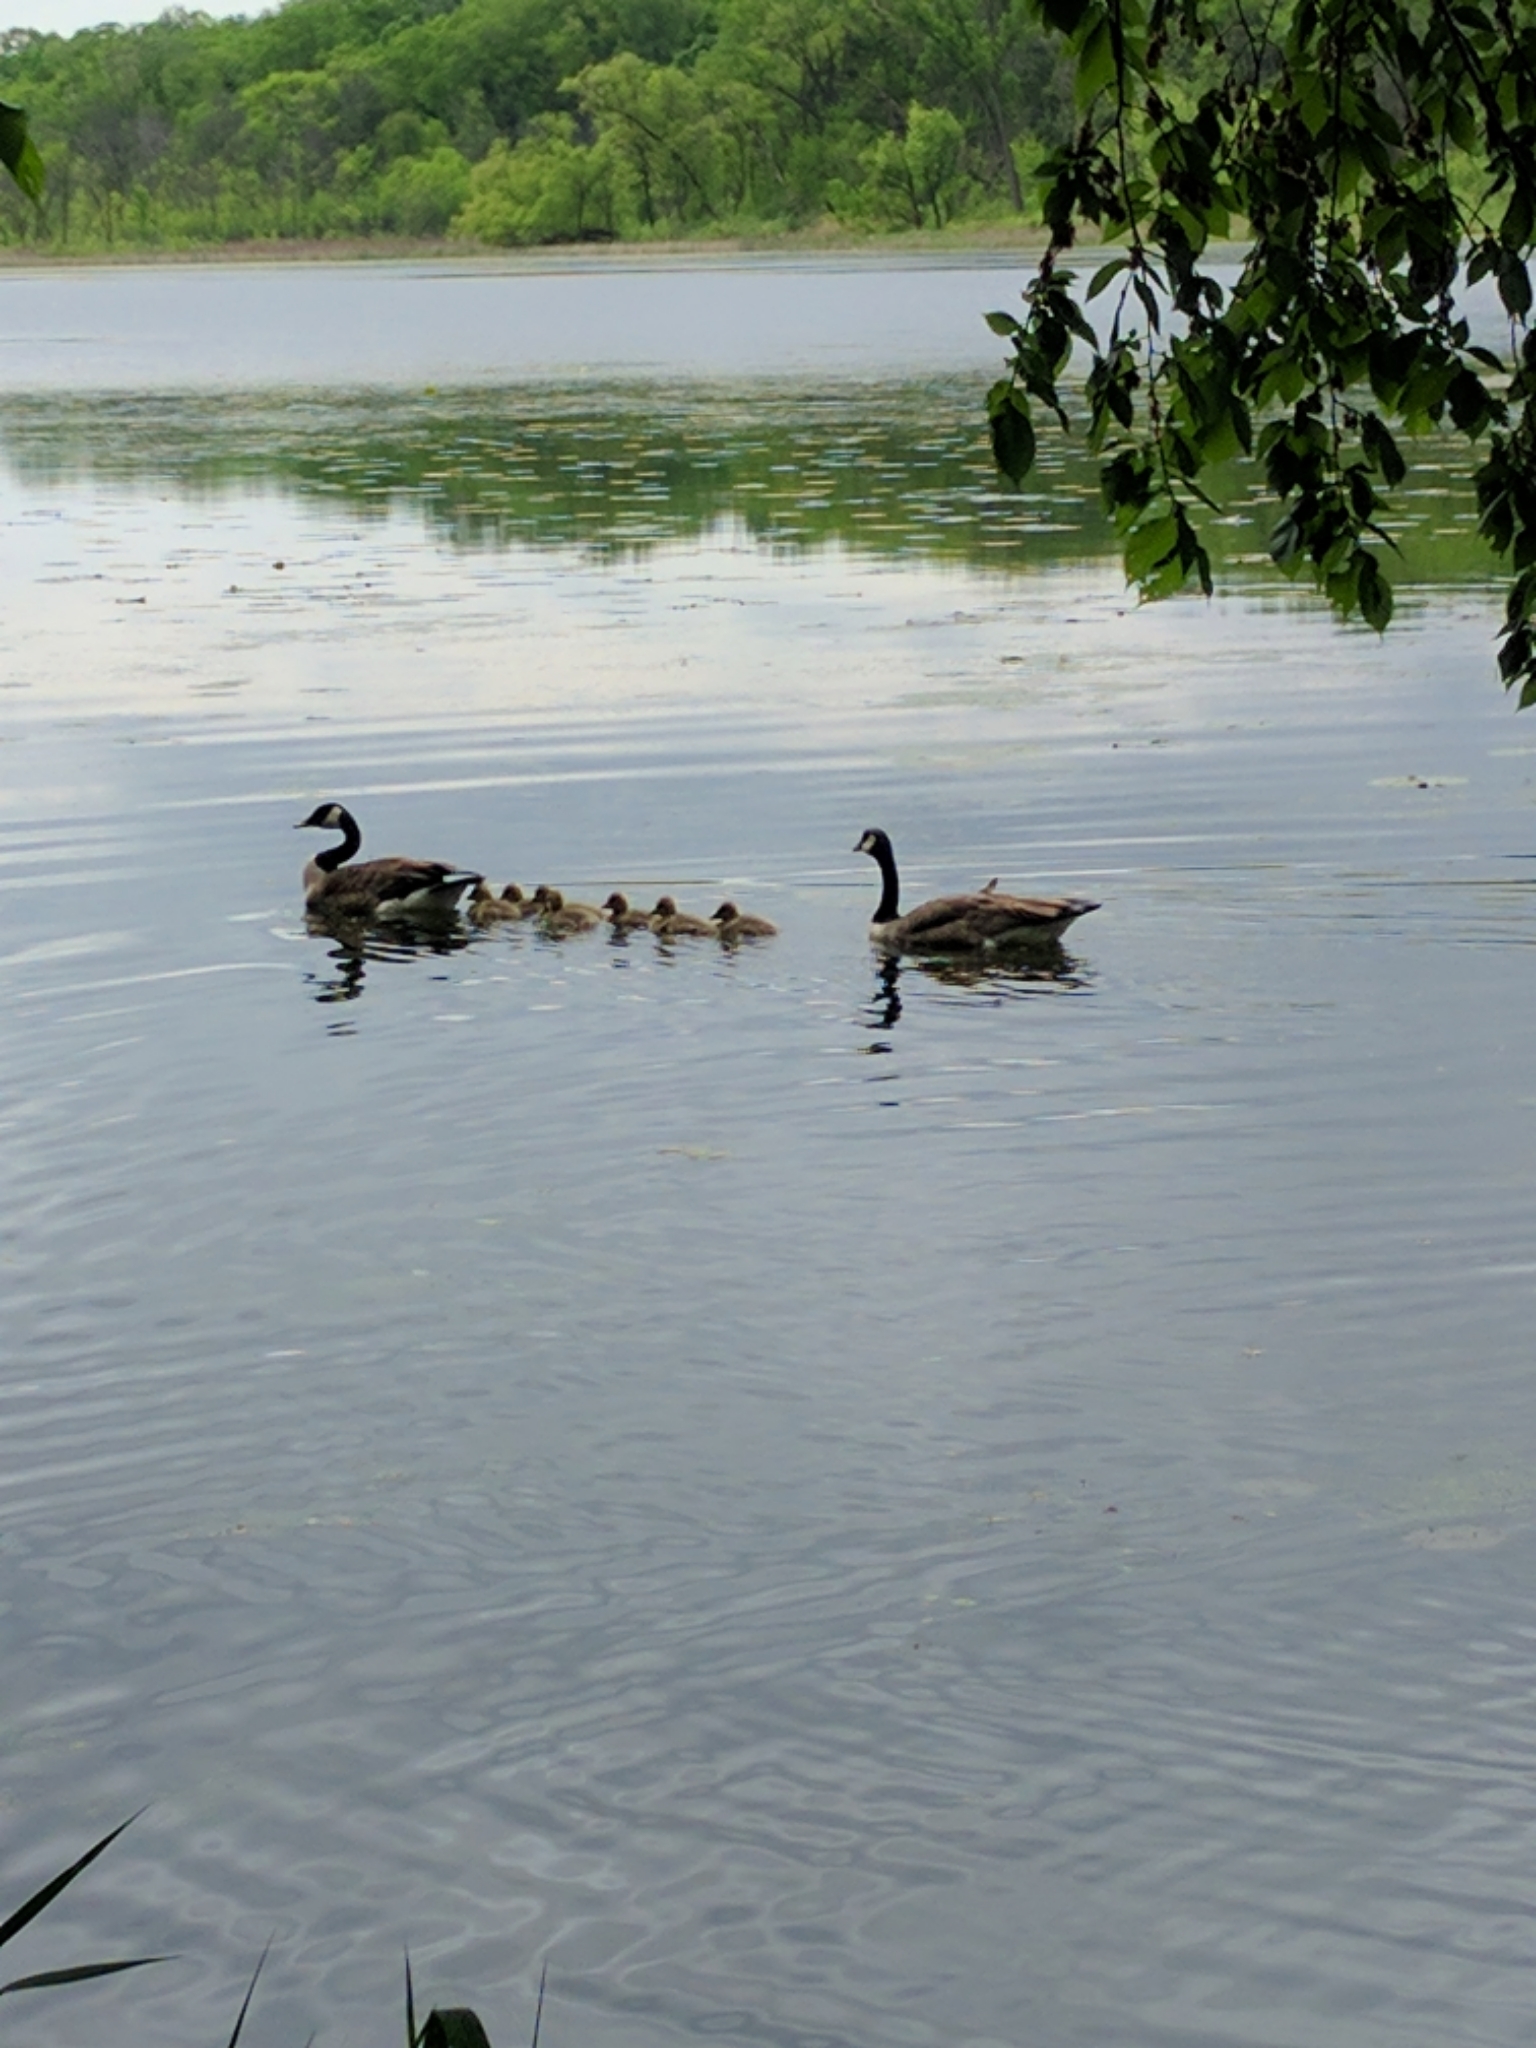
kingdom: Animalia
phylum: Chordata
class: Aves
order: Anseriformes
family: Anatidae
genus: Branta
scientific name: Branta canadensis
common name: Canada goose
